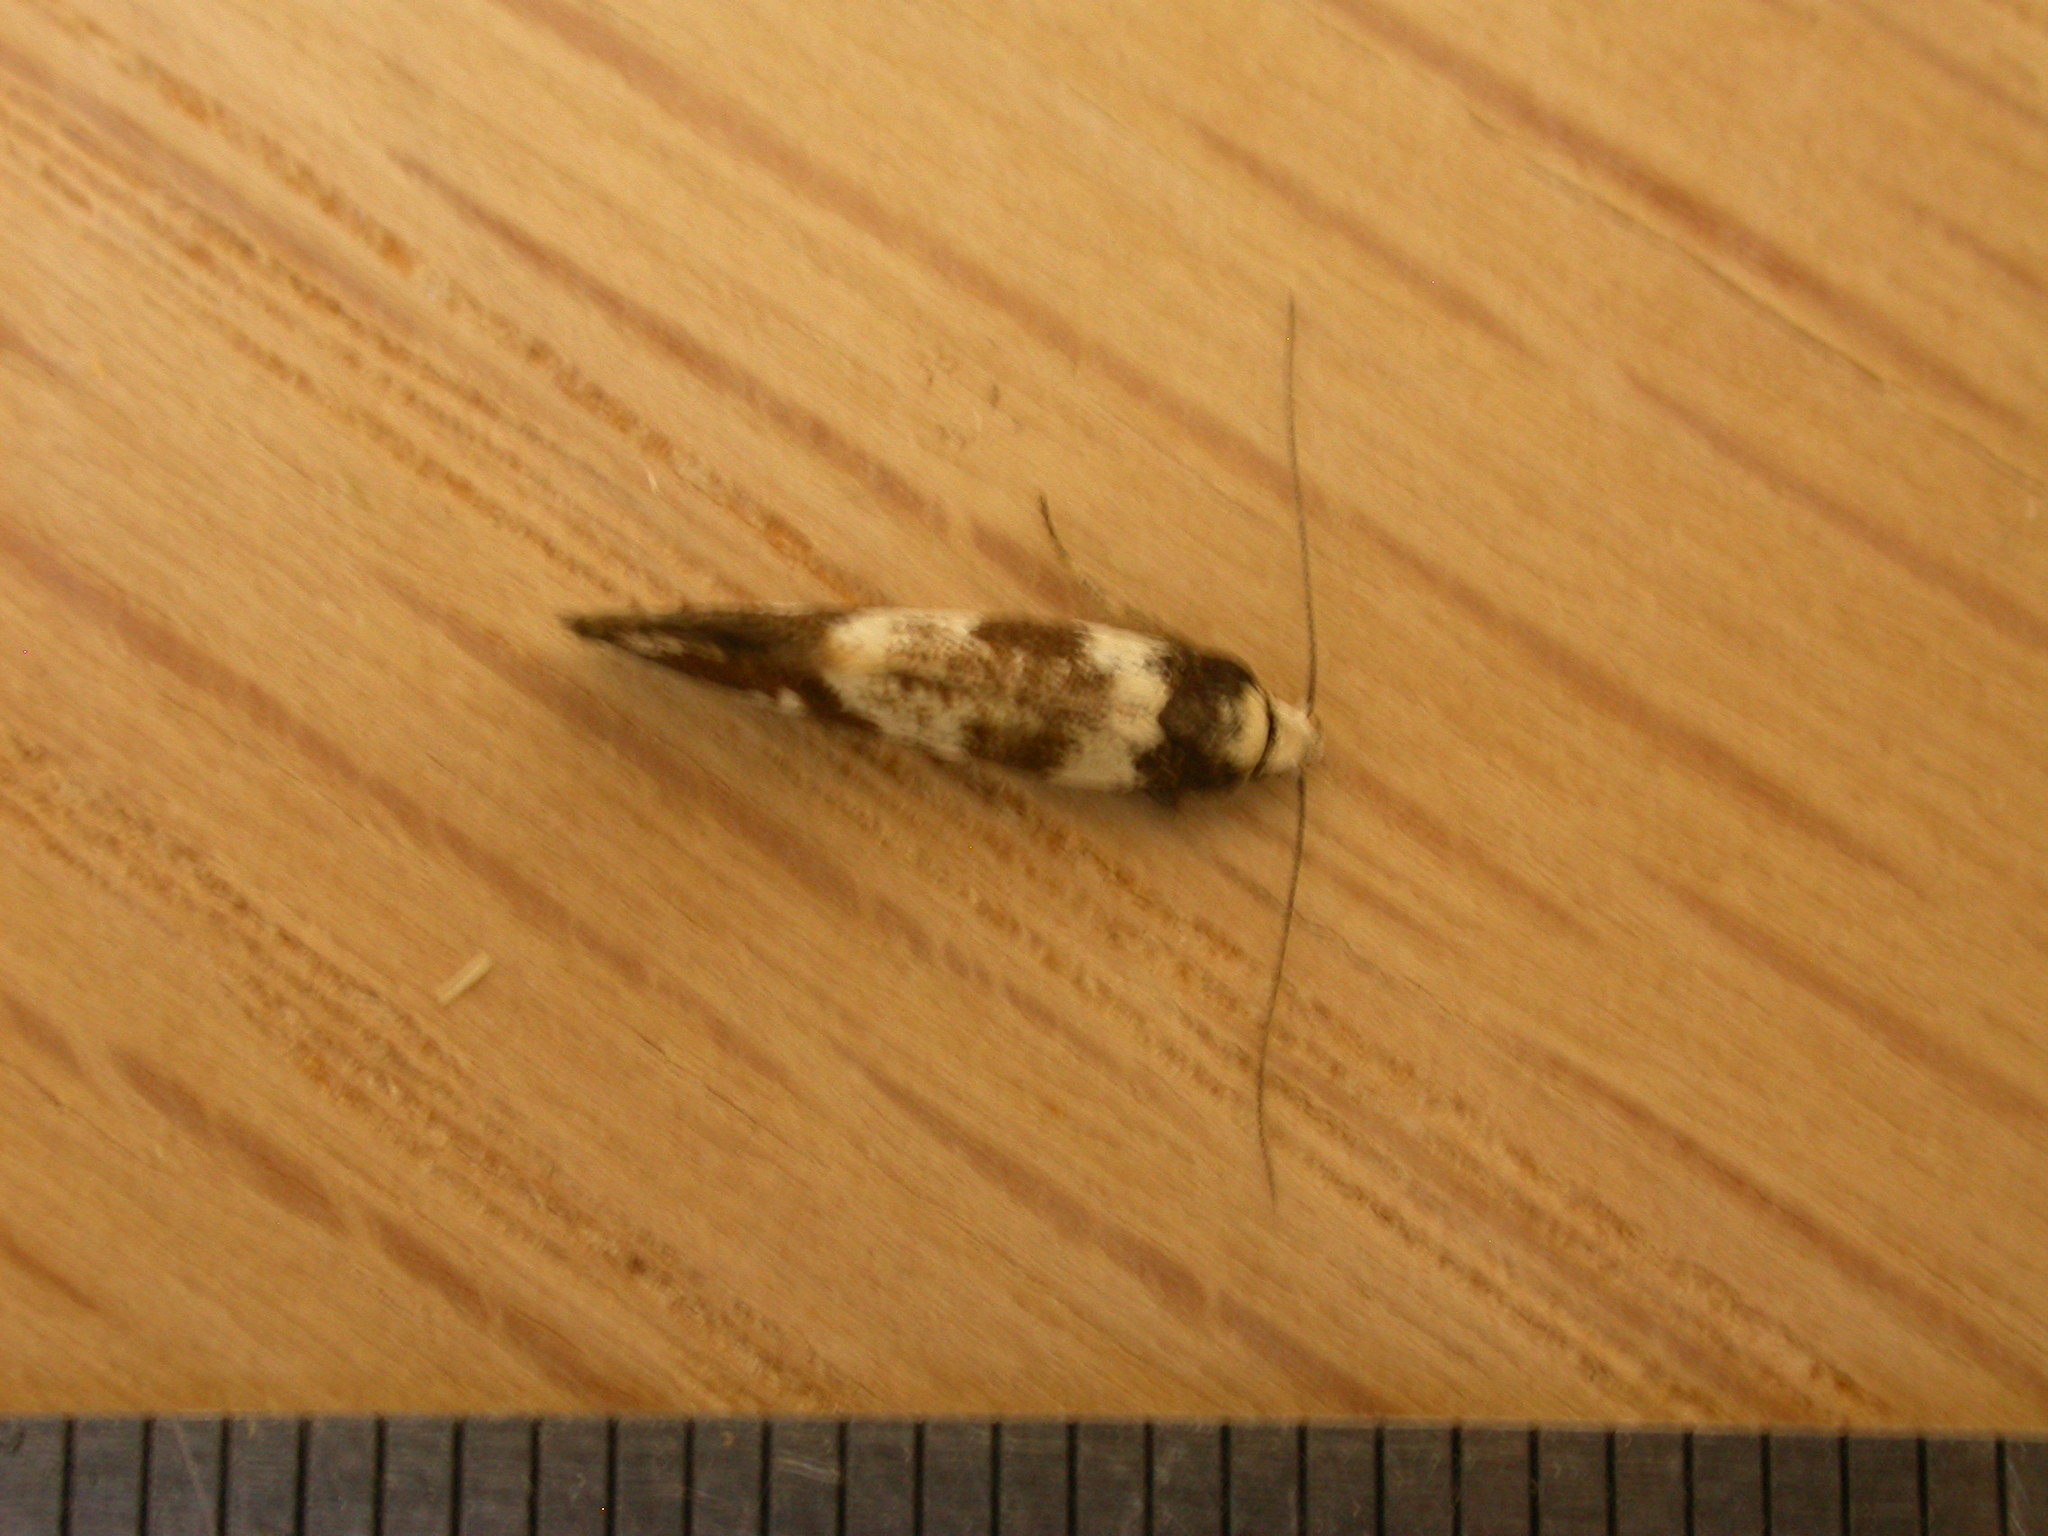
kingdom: Animalia
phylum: Arthropoda
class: Insecta
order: Lepidoptera
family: Oecophoridae
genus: Isomoralla
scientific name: Isomoralla eriscota
